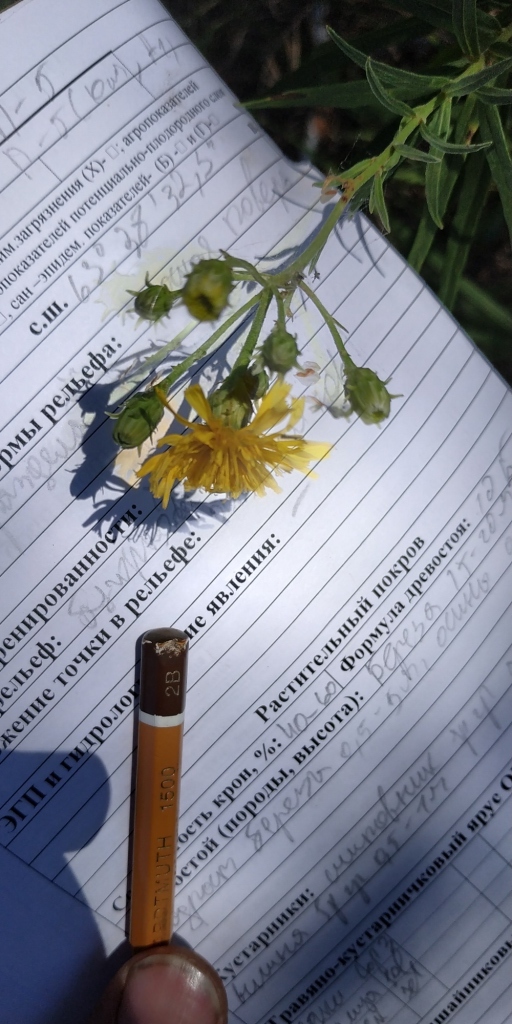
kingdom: Plantae
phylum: Tracheophyta
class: Magnoliopsida
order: Asterales
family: Asteraceae
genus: Hieracium
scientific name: Hieracium umbellatum
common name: Northern hawkweed
